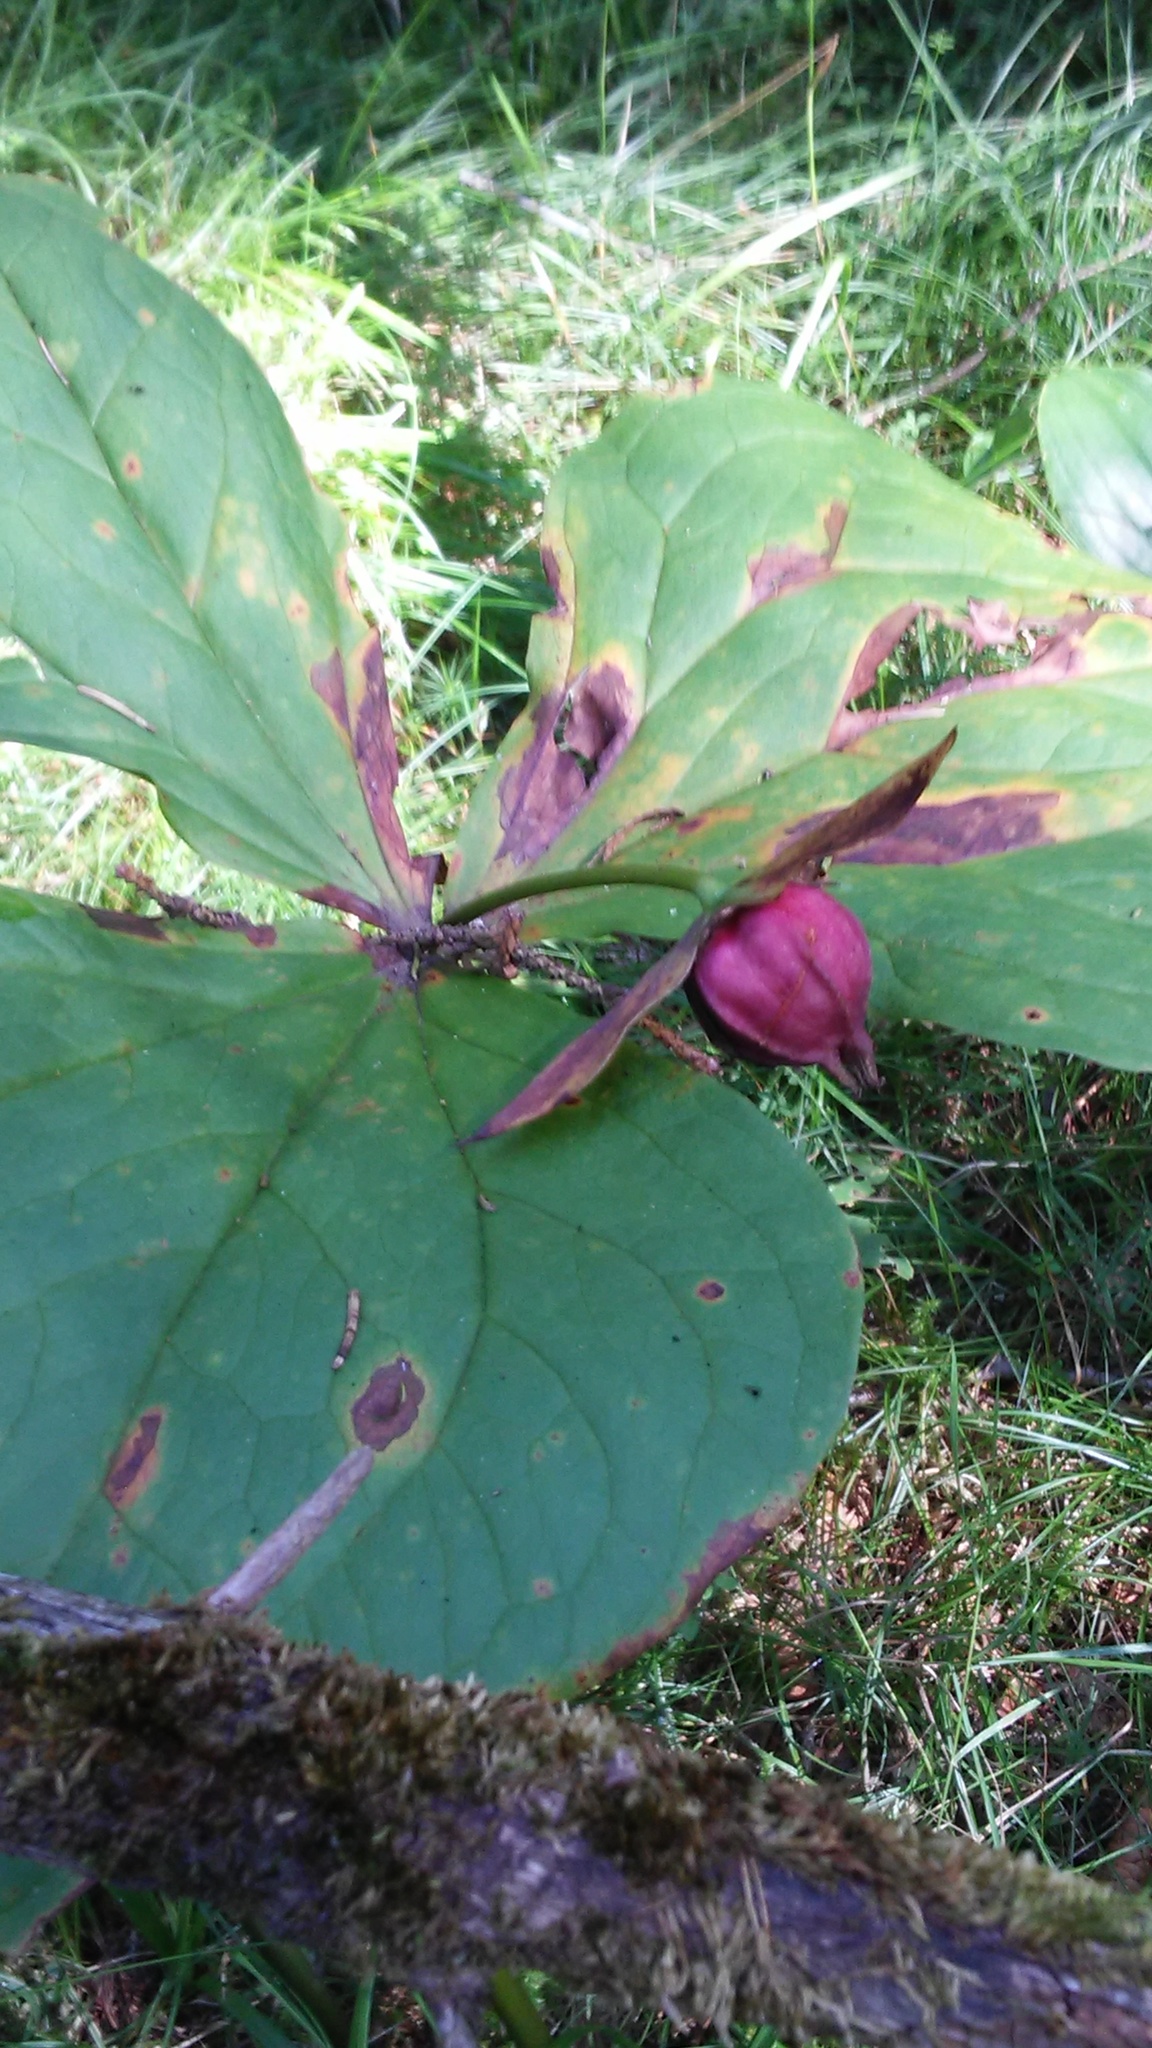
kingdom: Plantae
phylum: Tracheophyta
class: Liliopsida
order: Liliales
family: Melanthiaceae
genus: Trillium
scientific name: Trillium erectum
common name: Purple trillium
